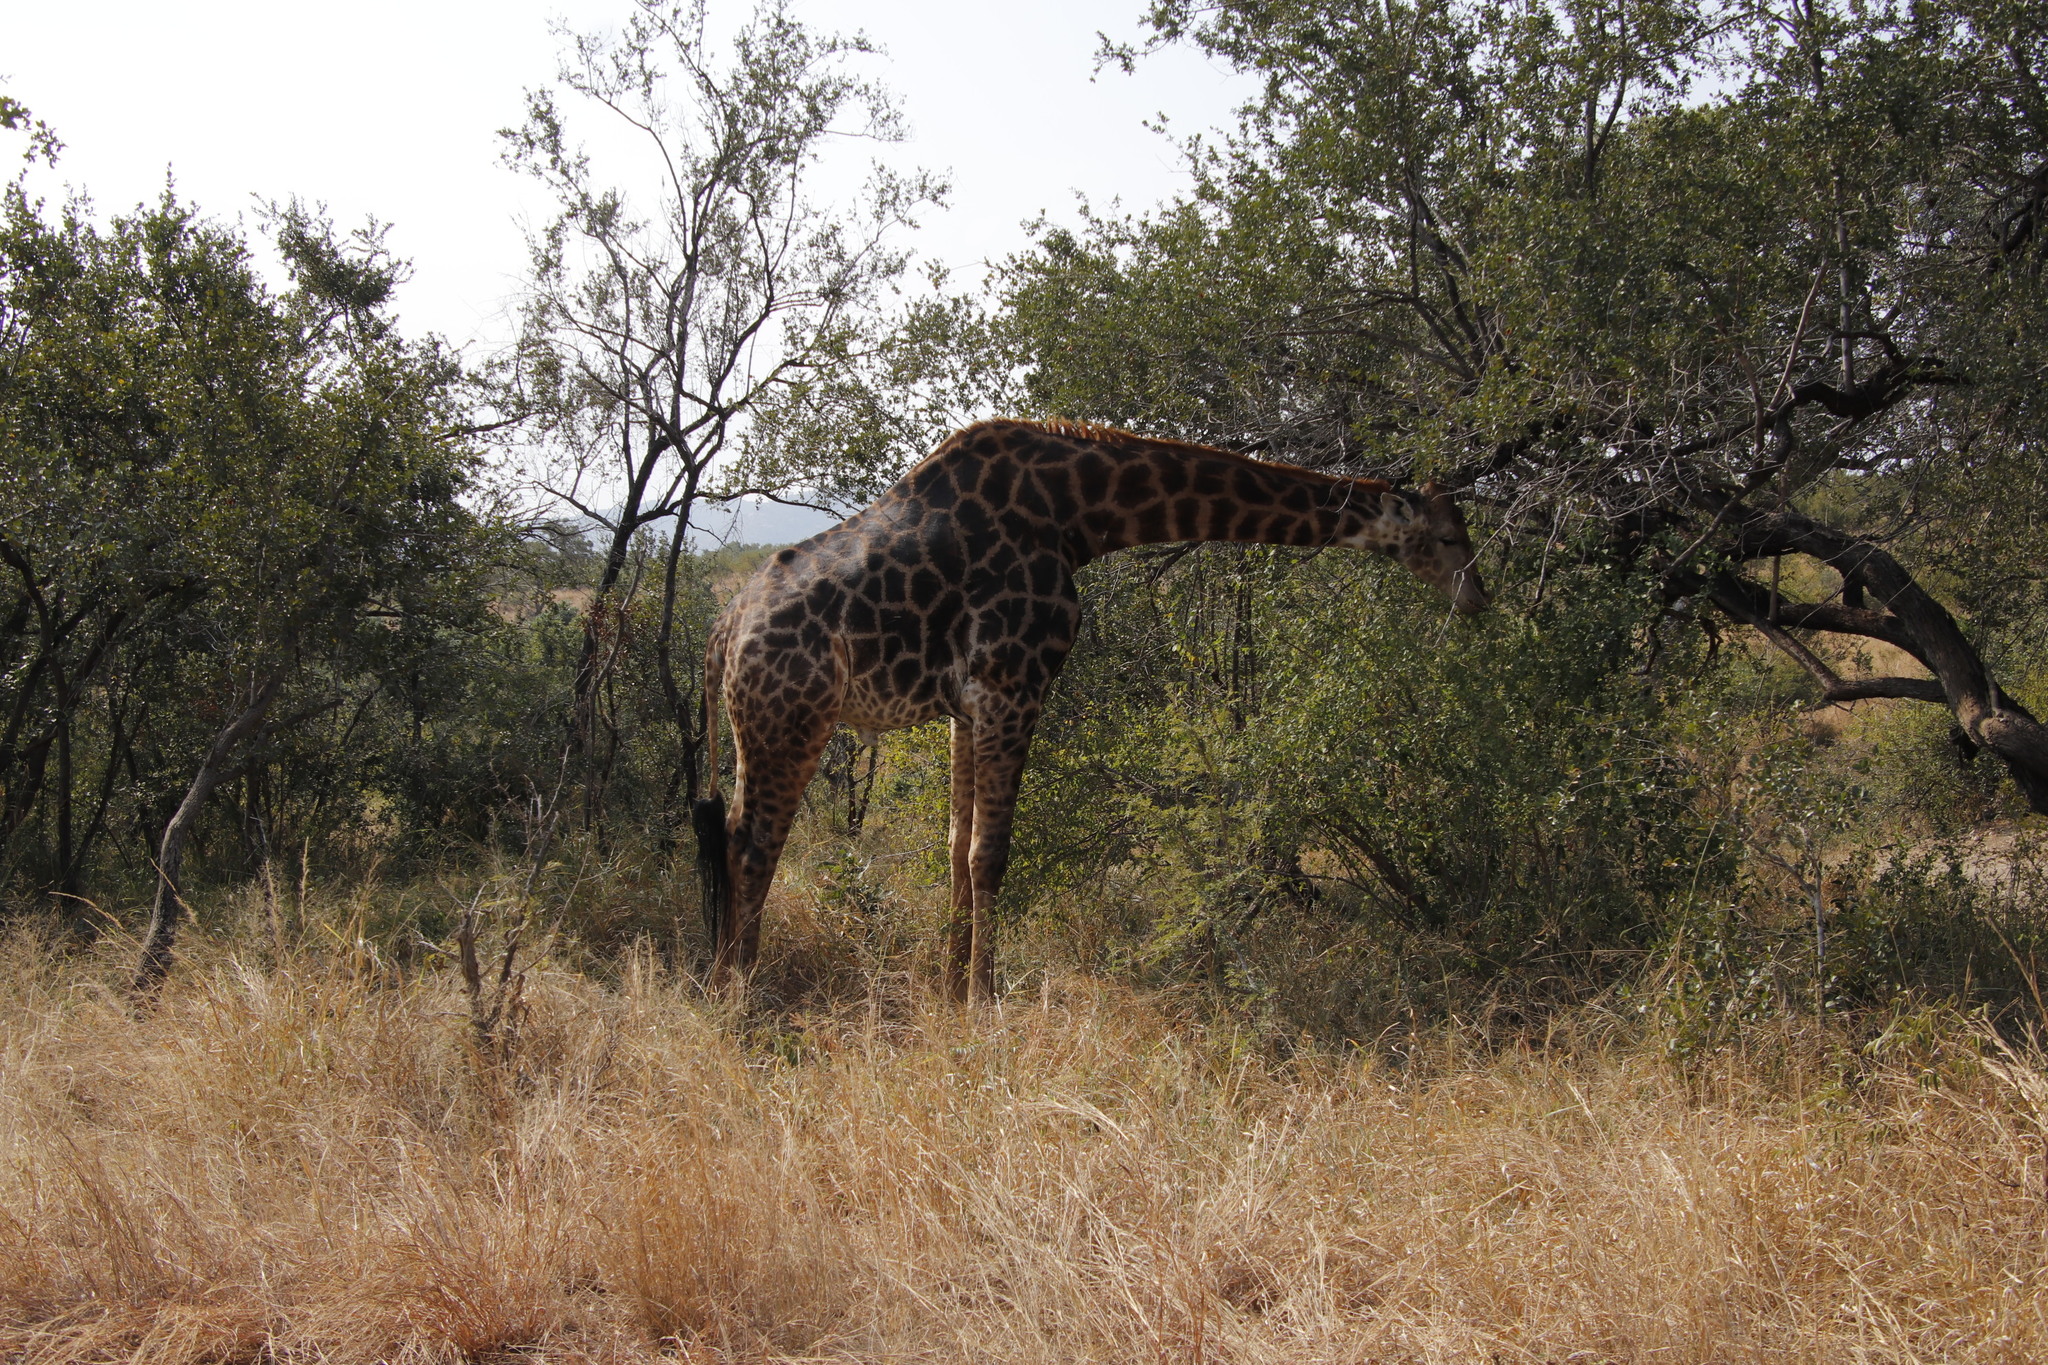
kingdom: Animalia
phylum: Chordata
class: Mammalia
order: Artiodactyla
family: Giraffidae
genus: Giraffa
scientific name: Giraffa giraffa
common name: Southern giraffe
